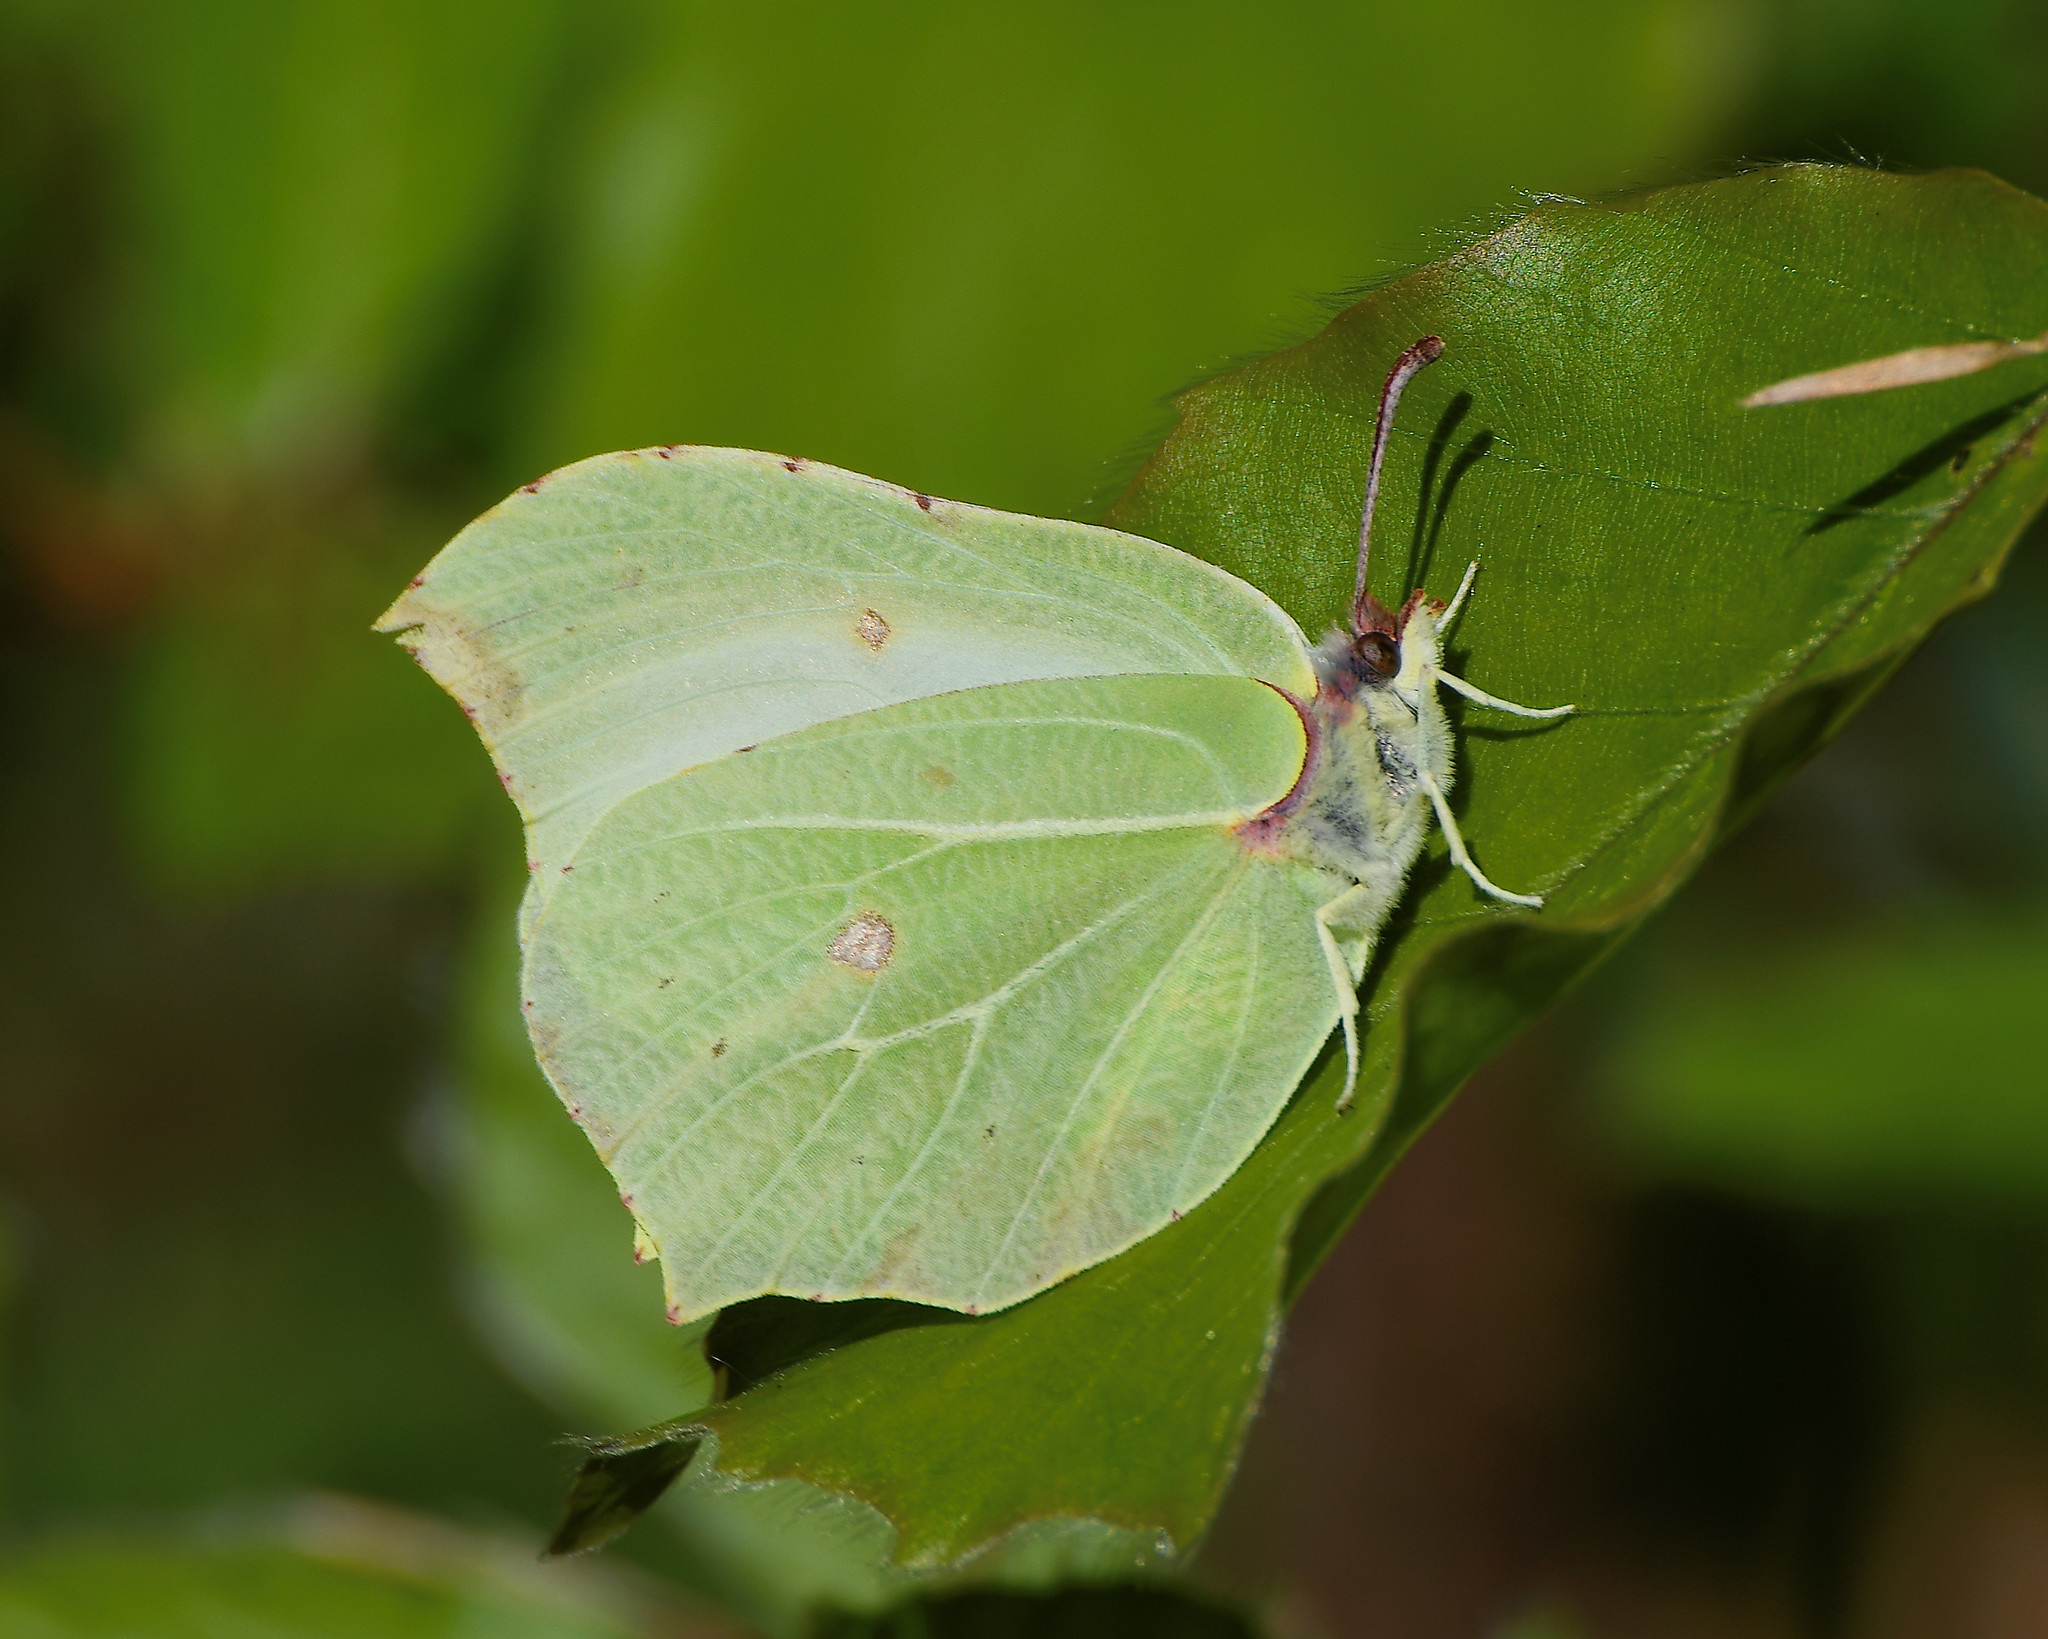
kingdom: Animalia
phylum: Arthropoda
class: Insecta
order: Lepidoptera
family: Pieridae
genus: Gonepteryx
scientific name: Gonepteryx rhamni
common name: Brimstone
